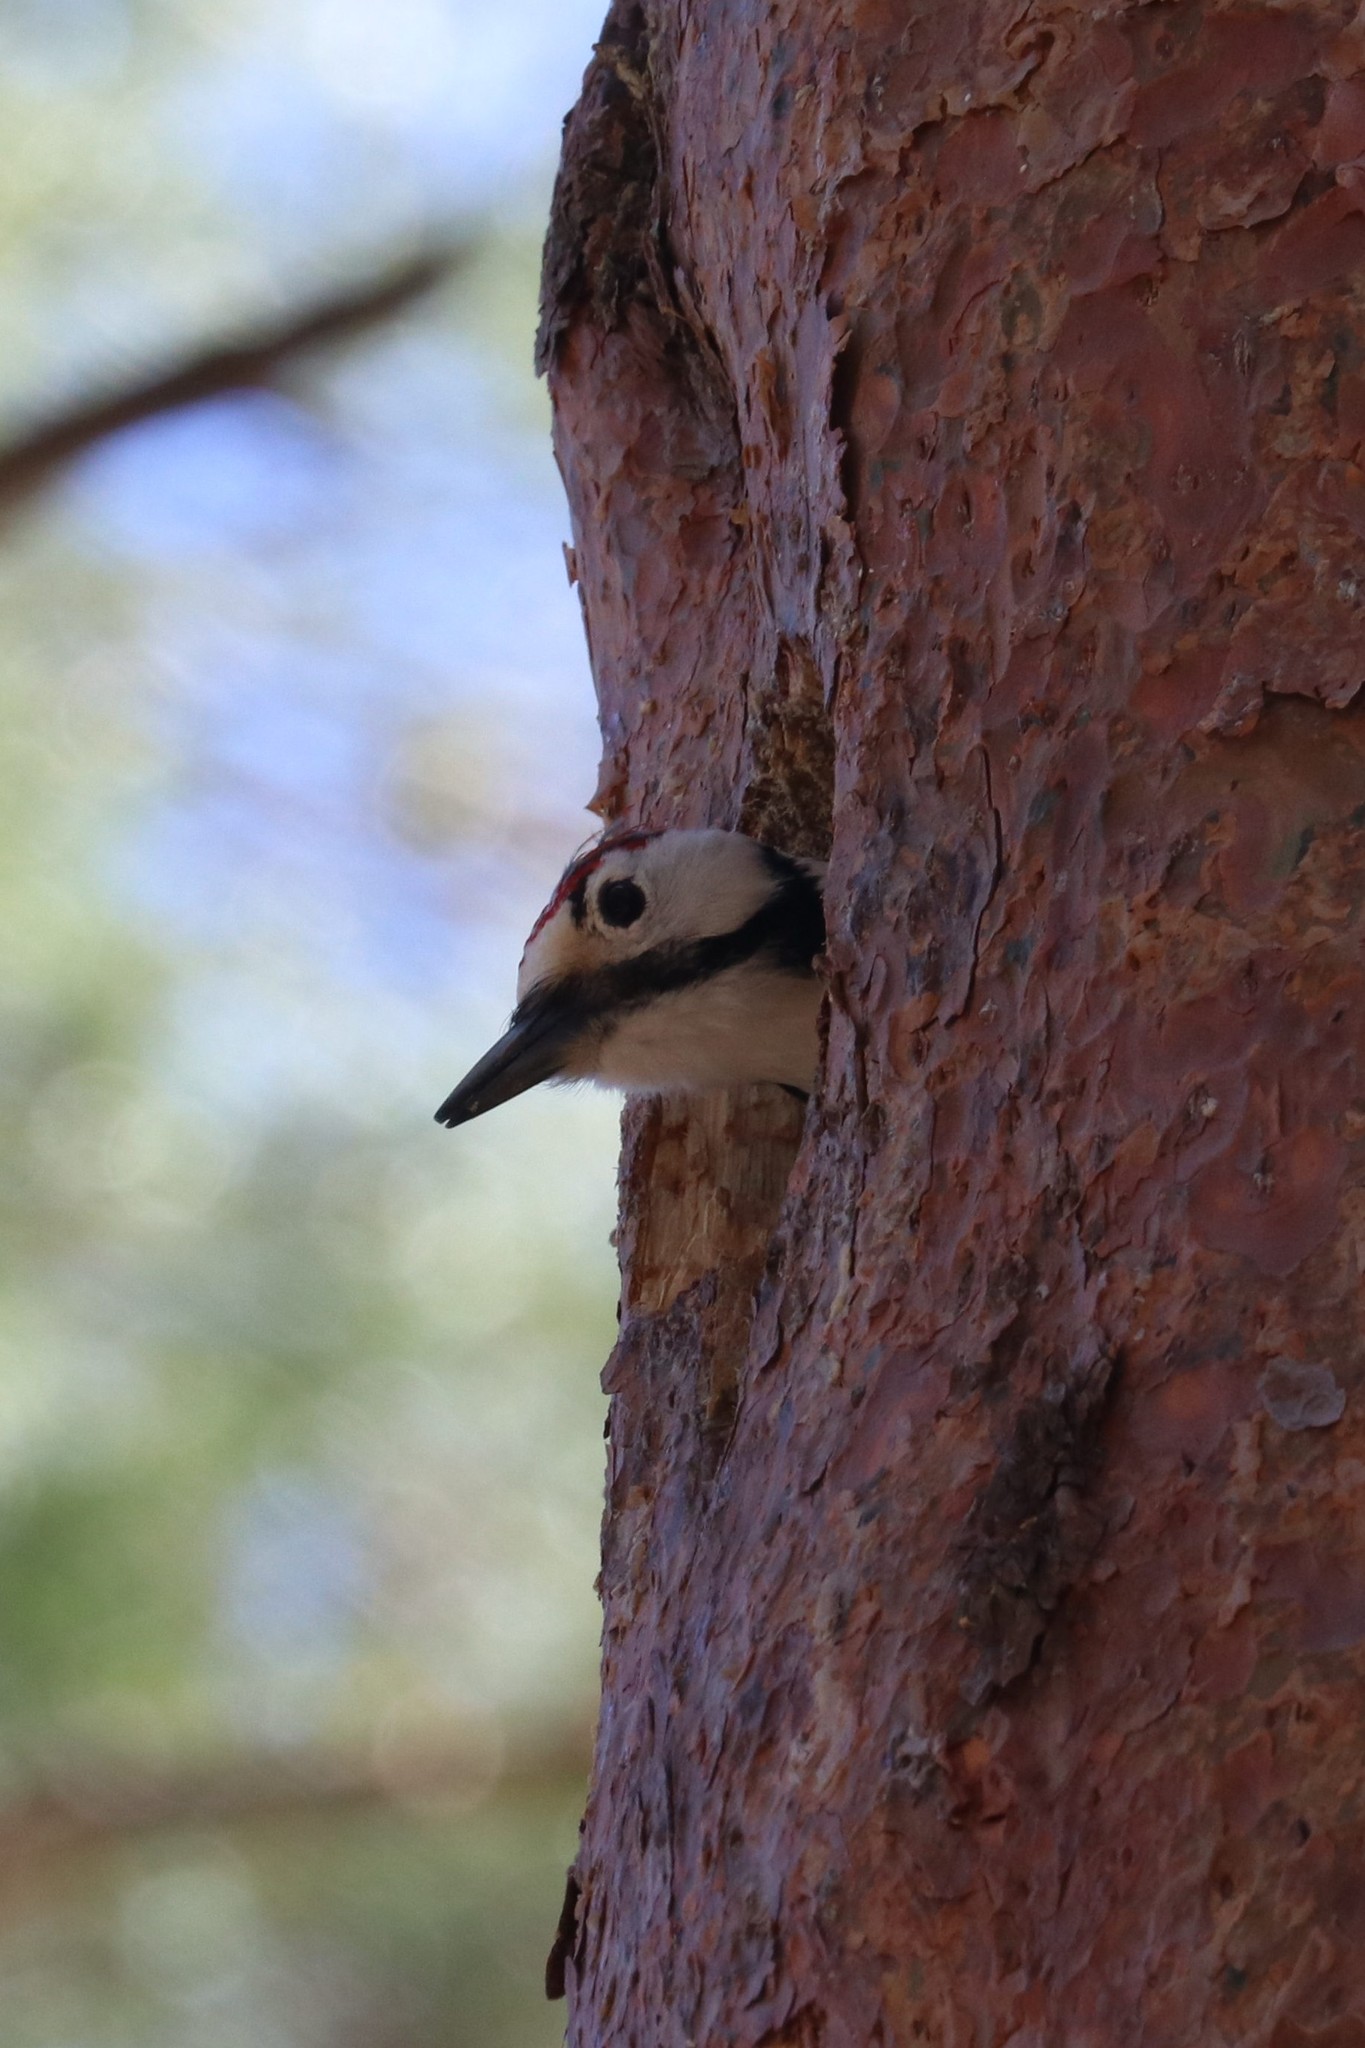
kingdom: Animalia
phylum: Chordata
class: Aves
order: Piciformes
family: Picidae
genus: Dendrocopos
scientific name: Dendrocopos major
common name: Great spotted woodpecker
